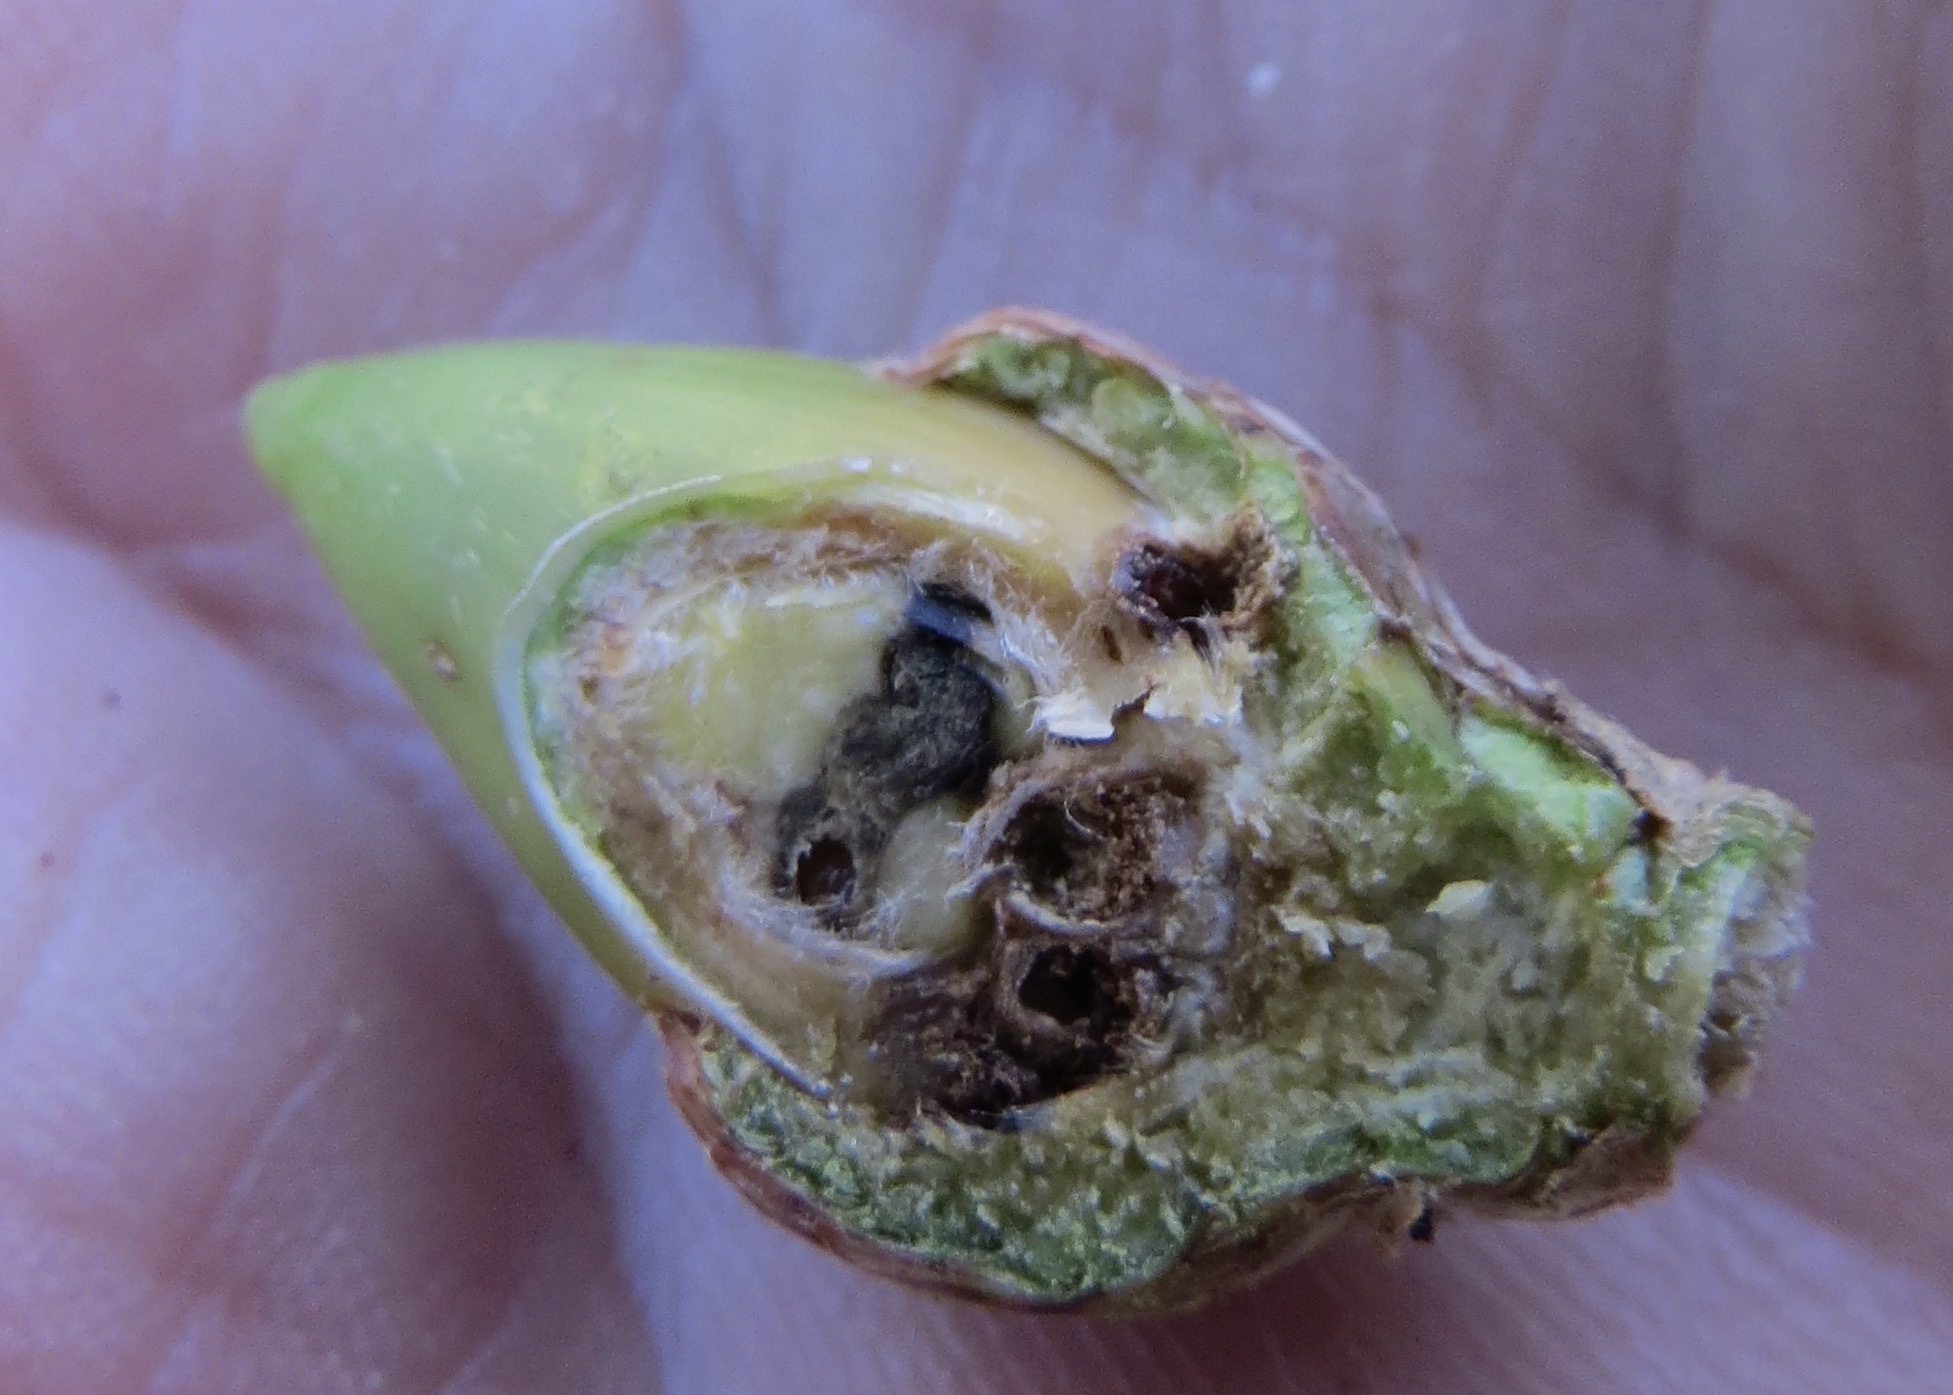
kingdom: Animalia
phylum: Arthropoda
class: Insecta
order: Hymenoptera
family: Cynipidae
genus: Callirhytis
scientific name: Callirhytis
